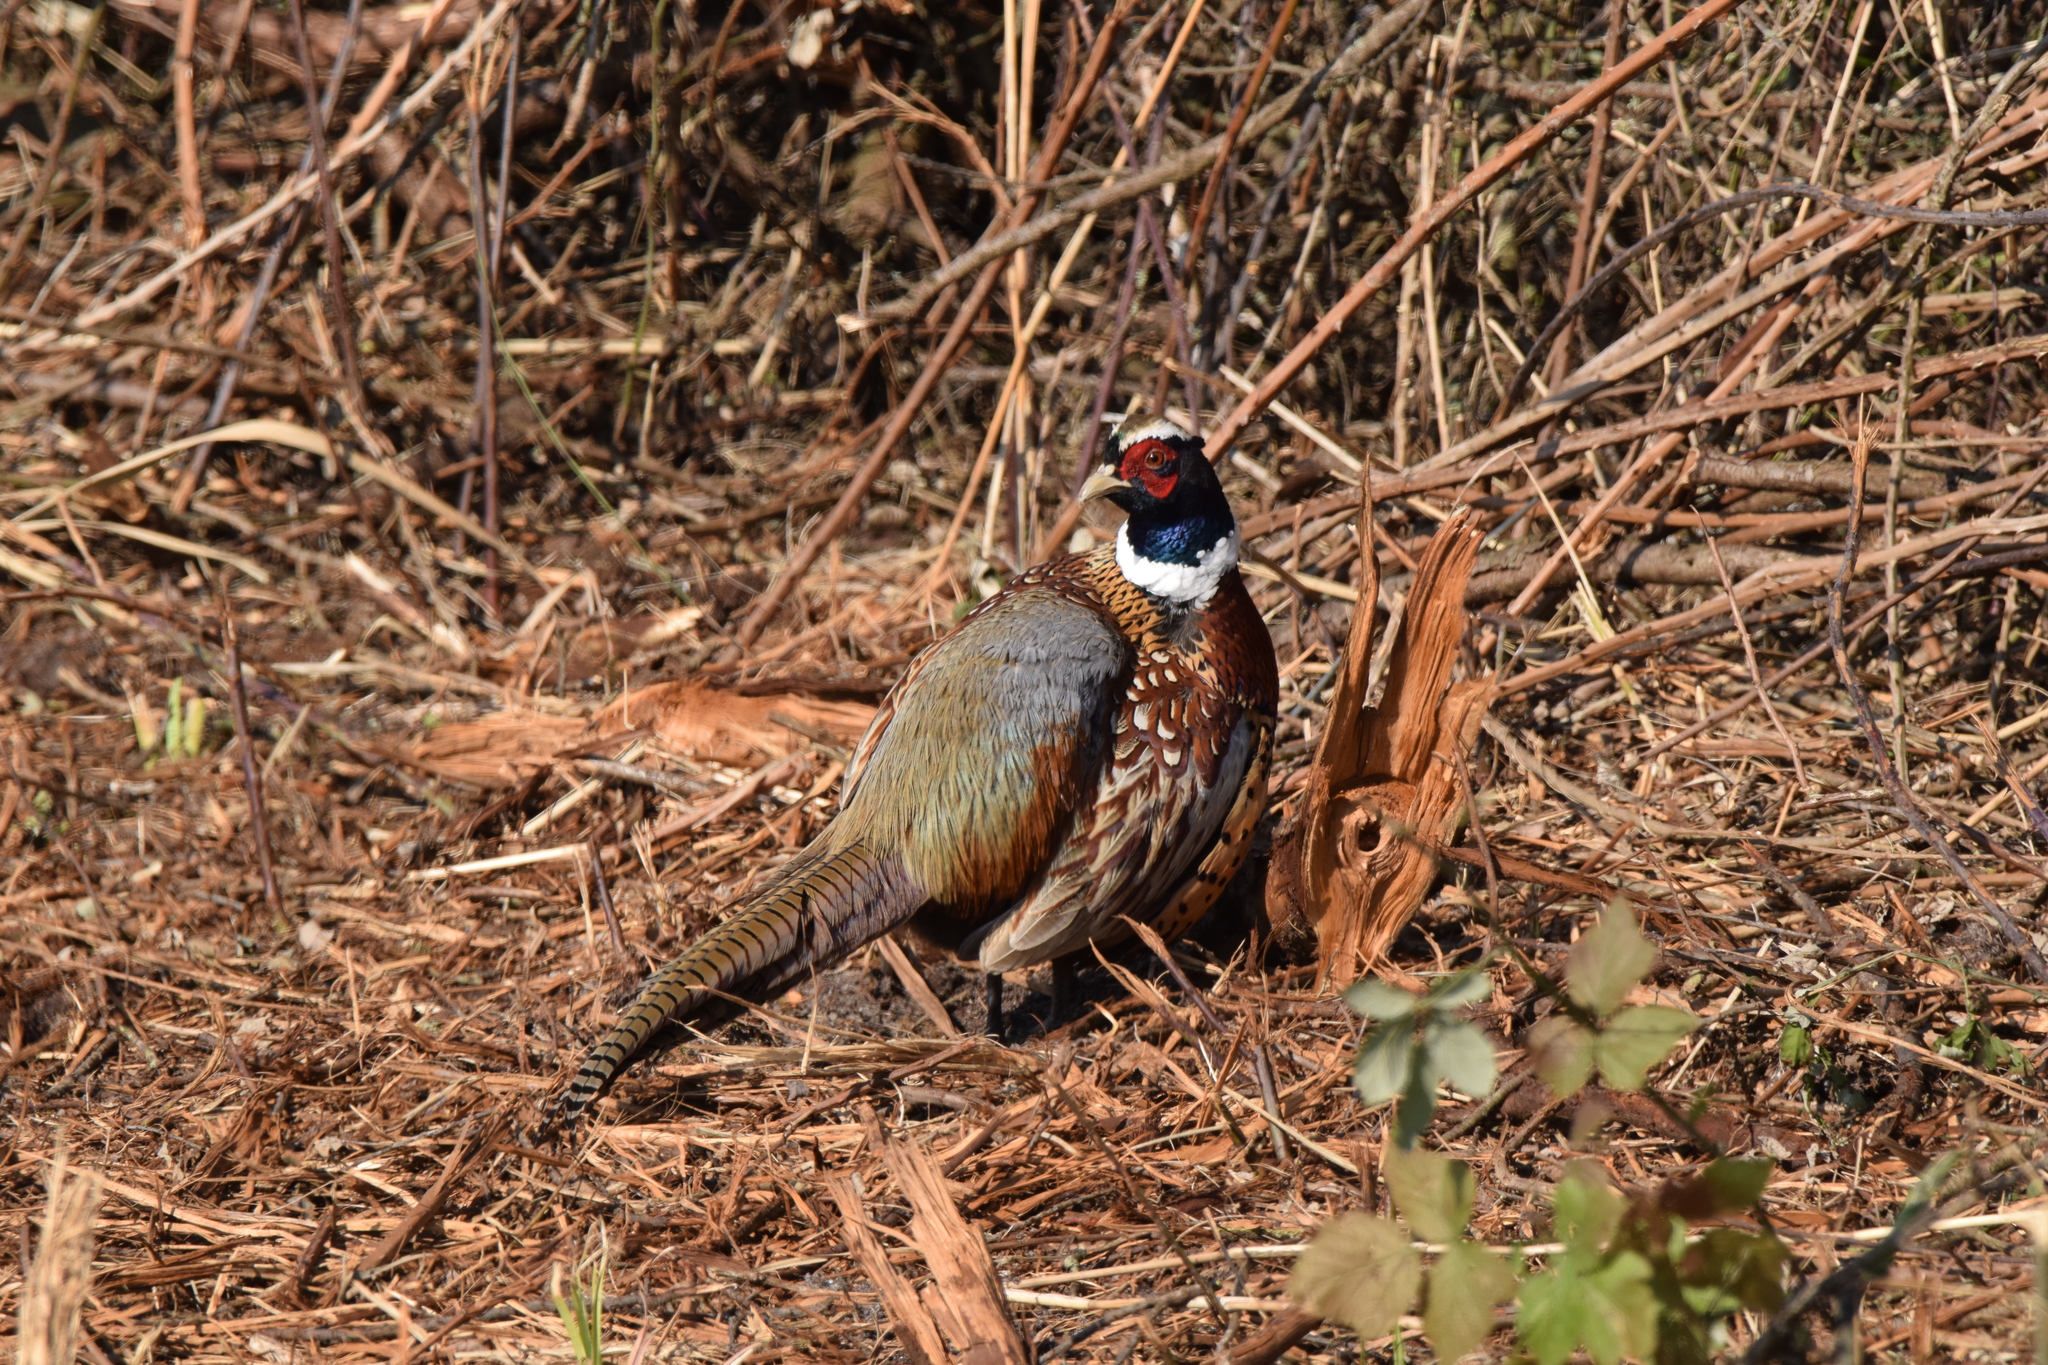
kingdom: Animalia
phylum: Chordata
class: Aves
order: Galliformes
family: Phasianidae
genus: Phasianus
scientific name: Phasianus colchicus
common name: Common pheasant
